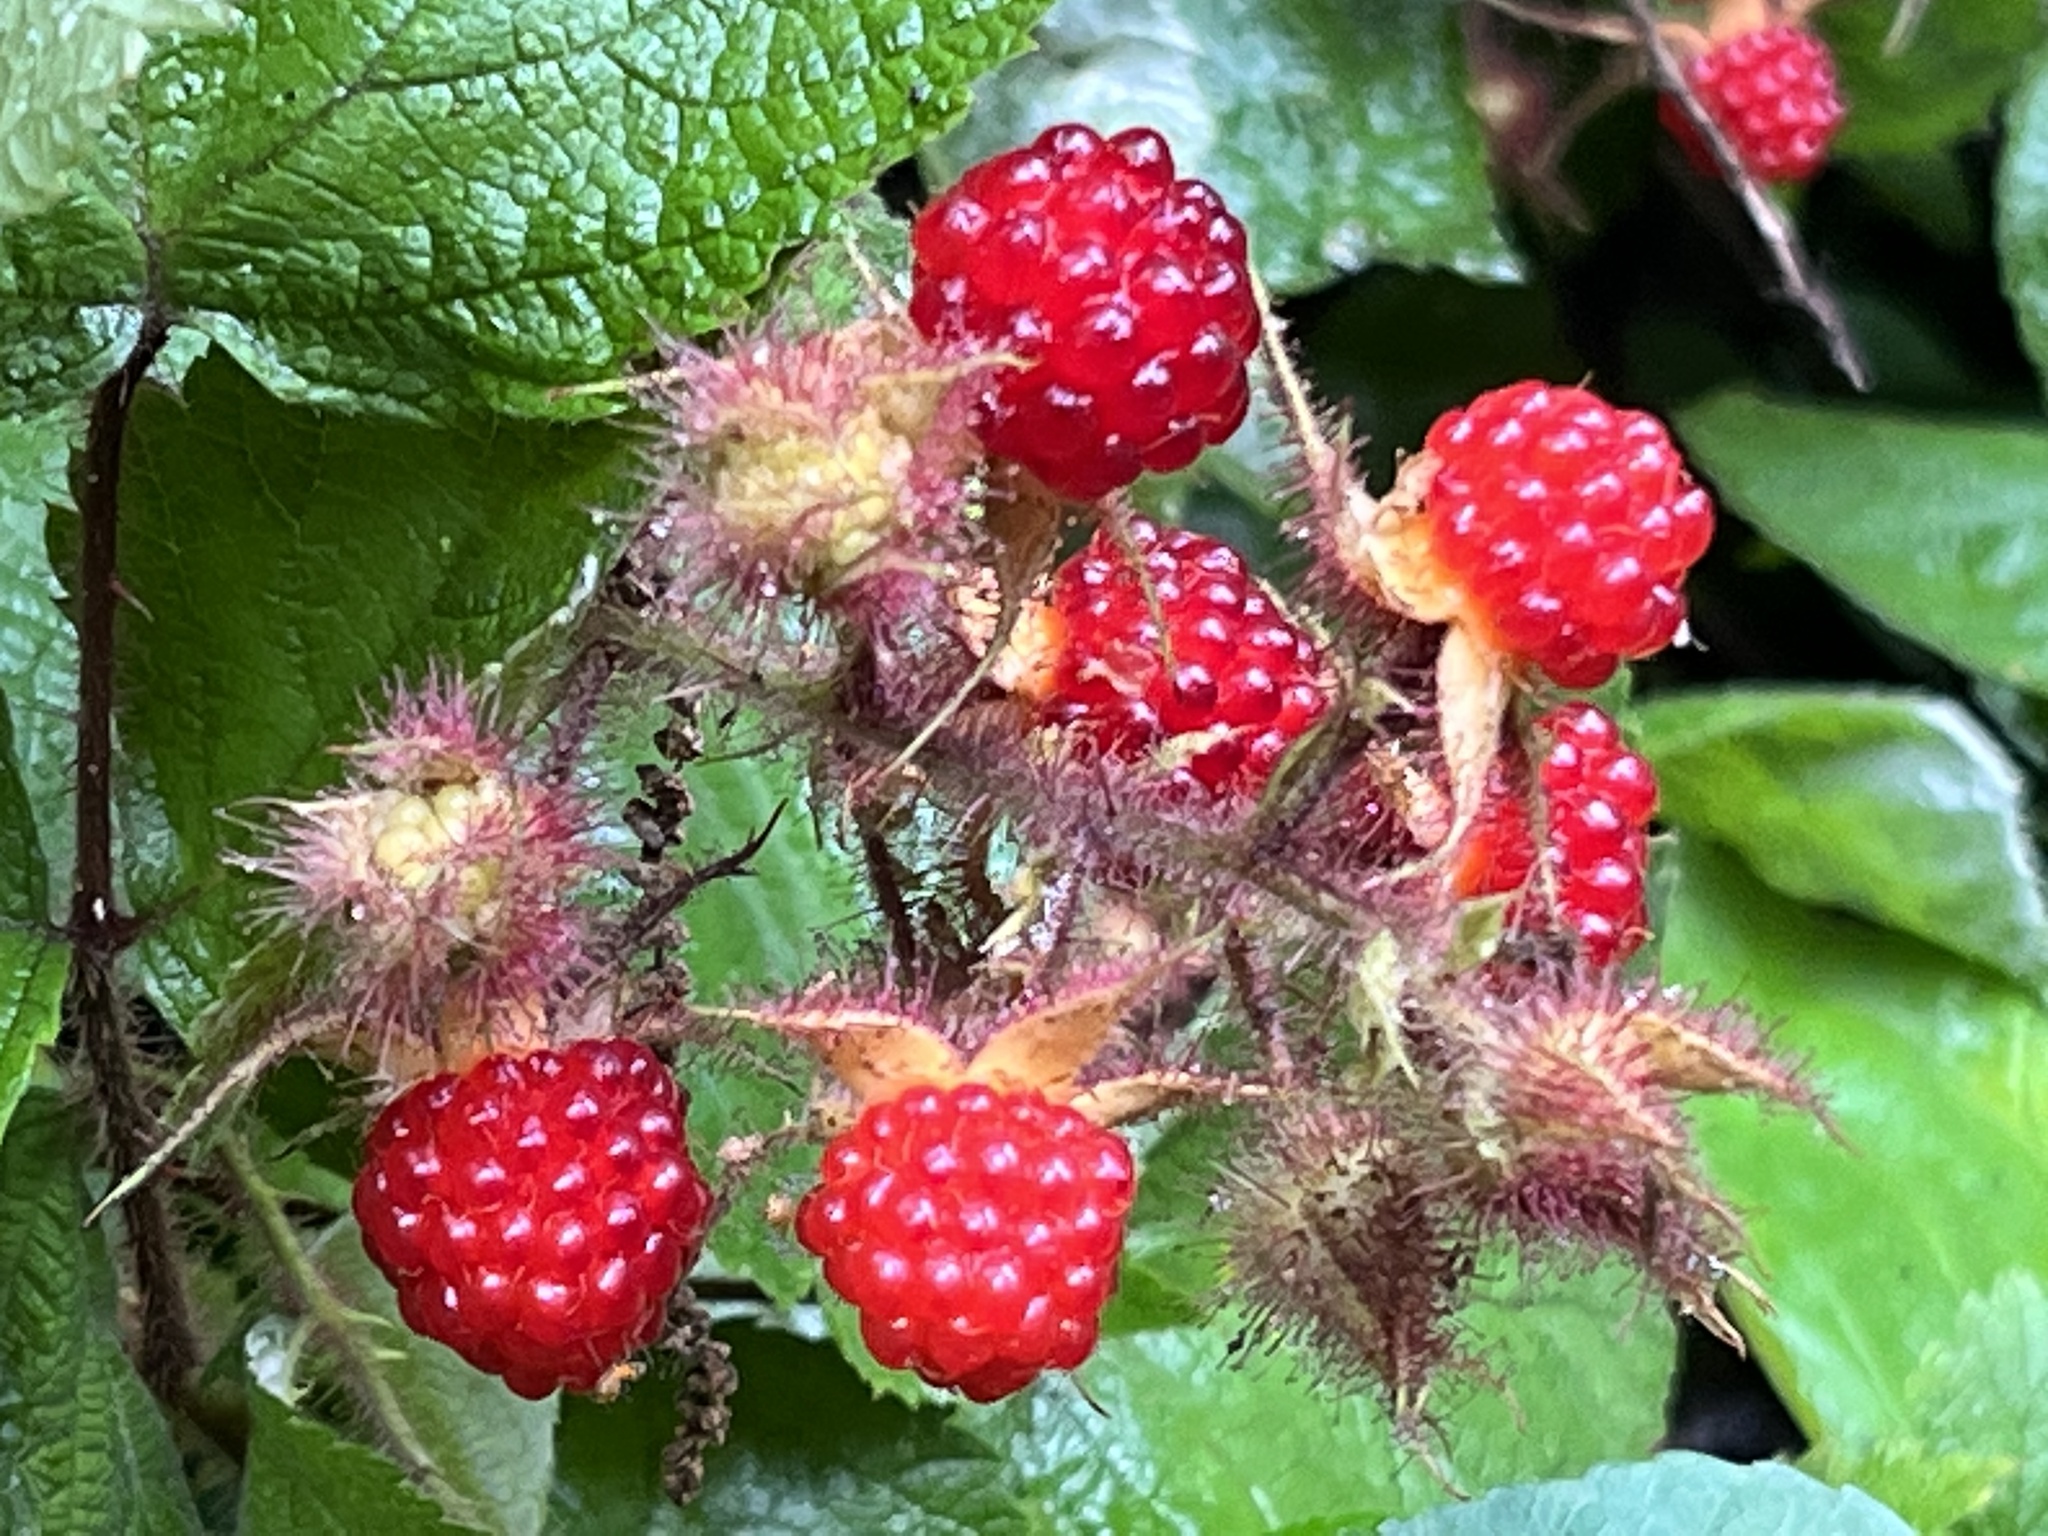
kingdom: Plantae
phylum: Tracheophyta
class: Magnoliopsida
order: Rosales
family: Rosaceae
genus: Rubus
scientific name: Rubus phoenicolasius
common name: Japanese wineberry
